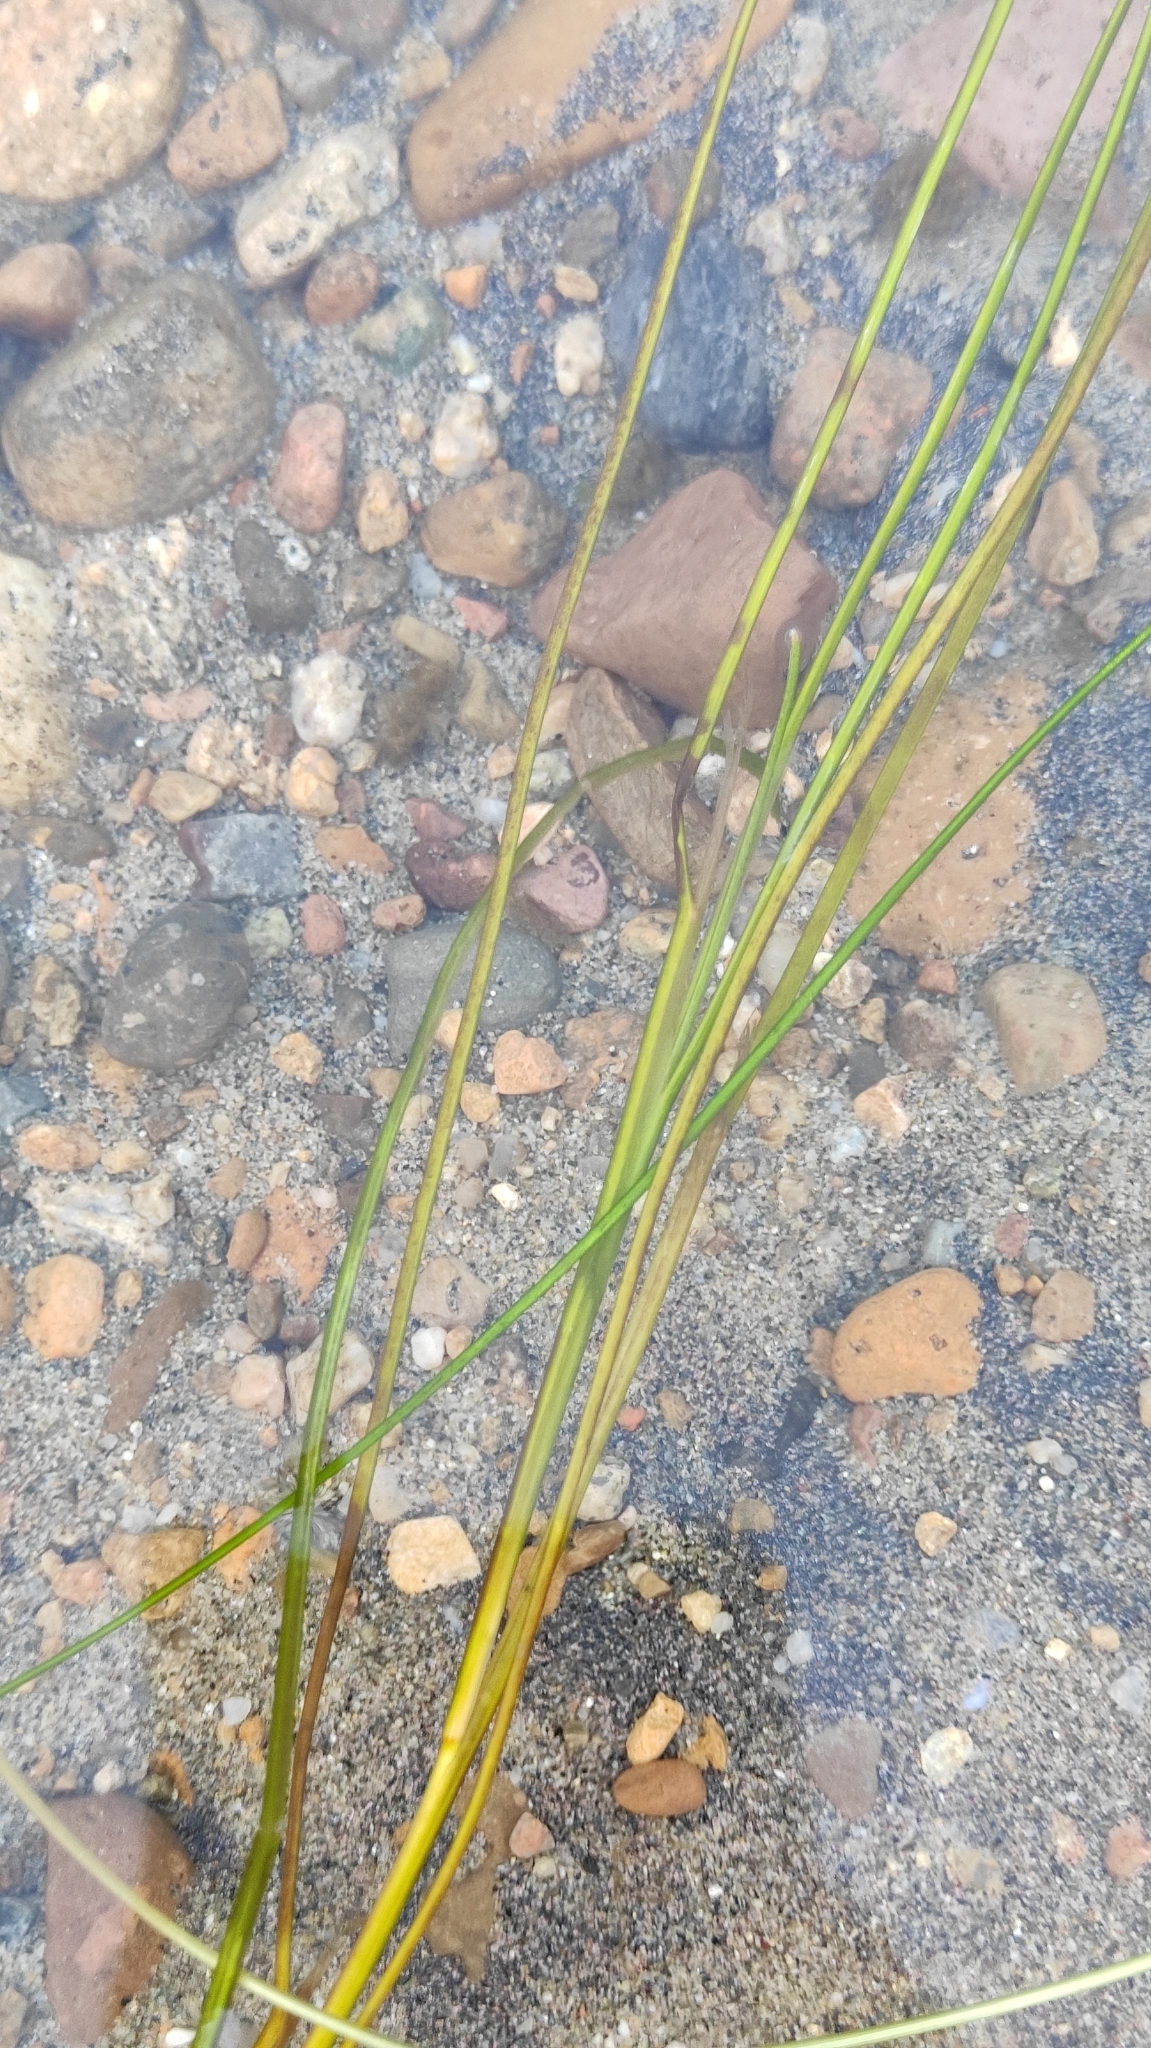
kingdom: Plantae
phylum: Tracheophyta
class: Liliopsida
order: Alismatales
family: Potamogetonaceae
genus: Stuckenia
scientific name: Stuckenia pectinata
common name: Sago pondweed
